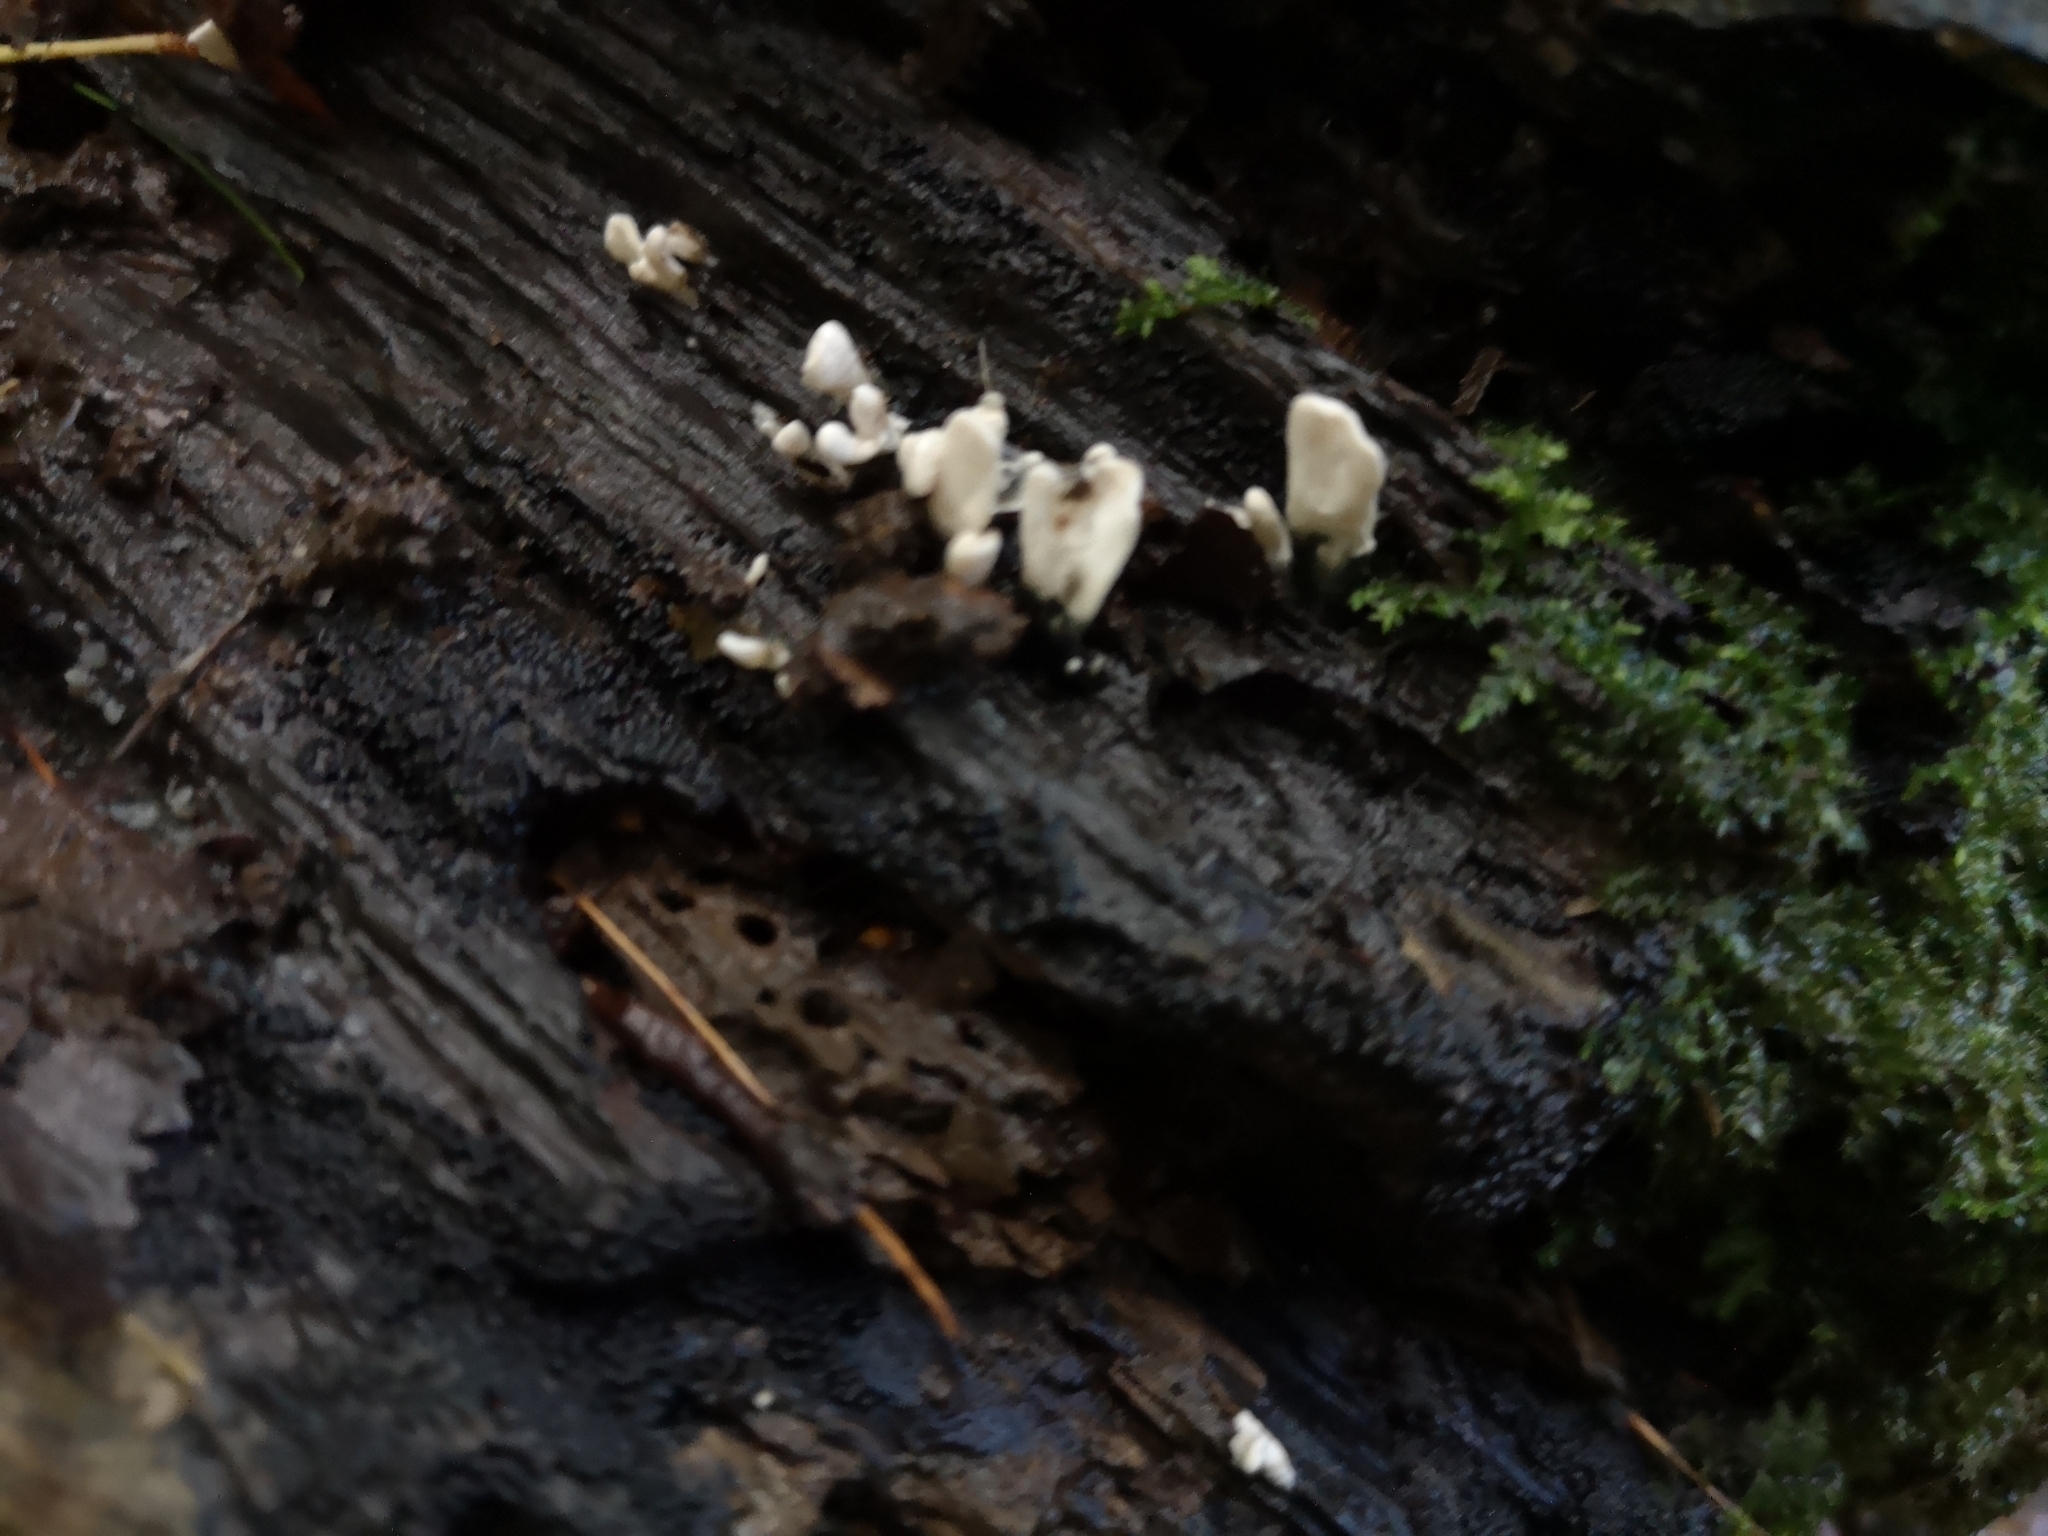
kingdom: Fungi
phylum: Ascomycota
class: Sordariomycetes
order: Xylariales
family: Xylariaceae
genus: Xylaria
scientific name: Xylaria hypoxylon
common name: Candle-snuff fungus
